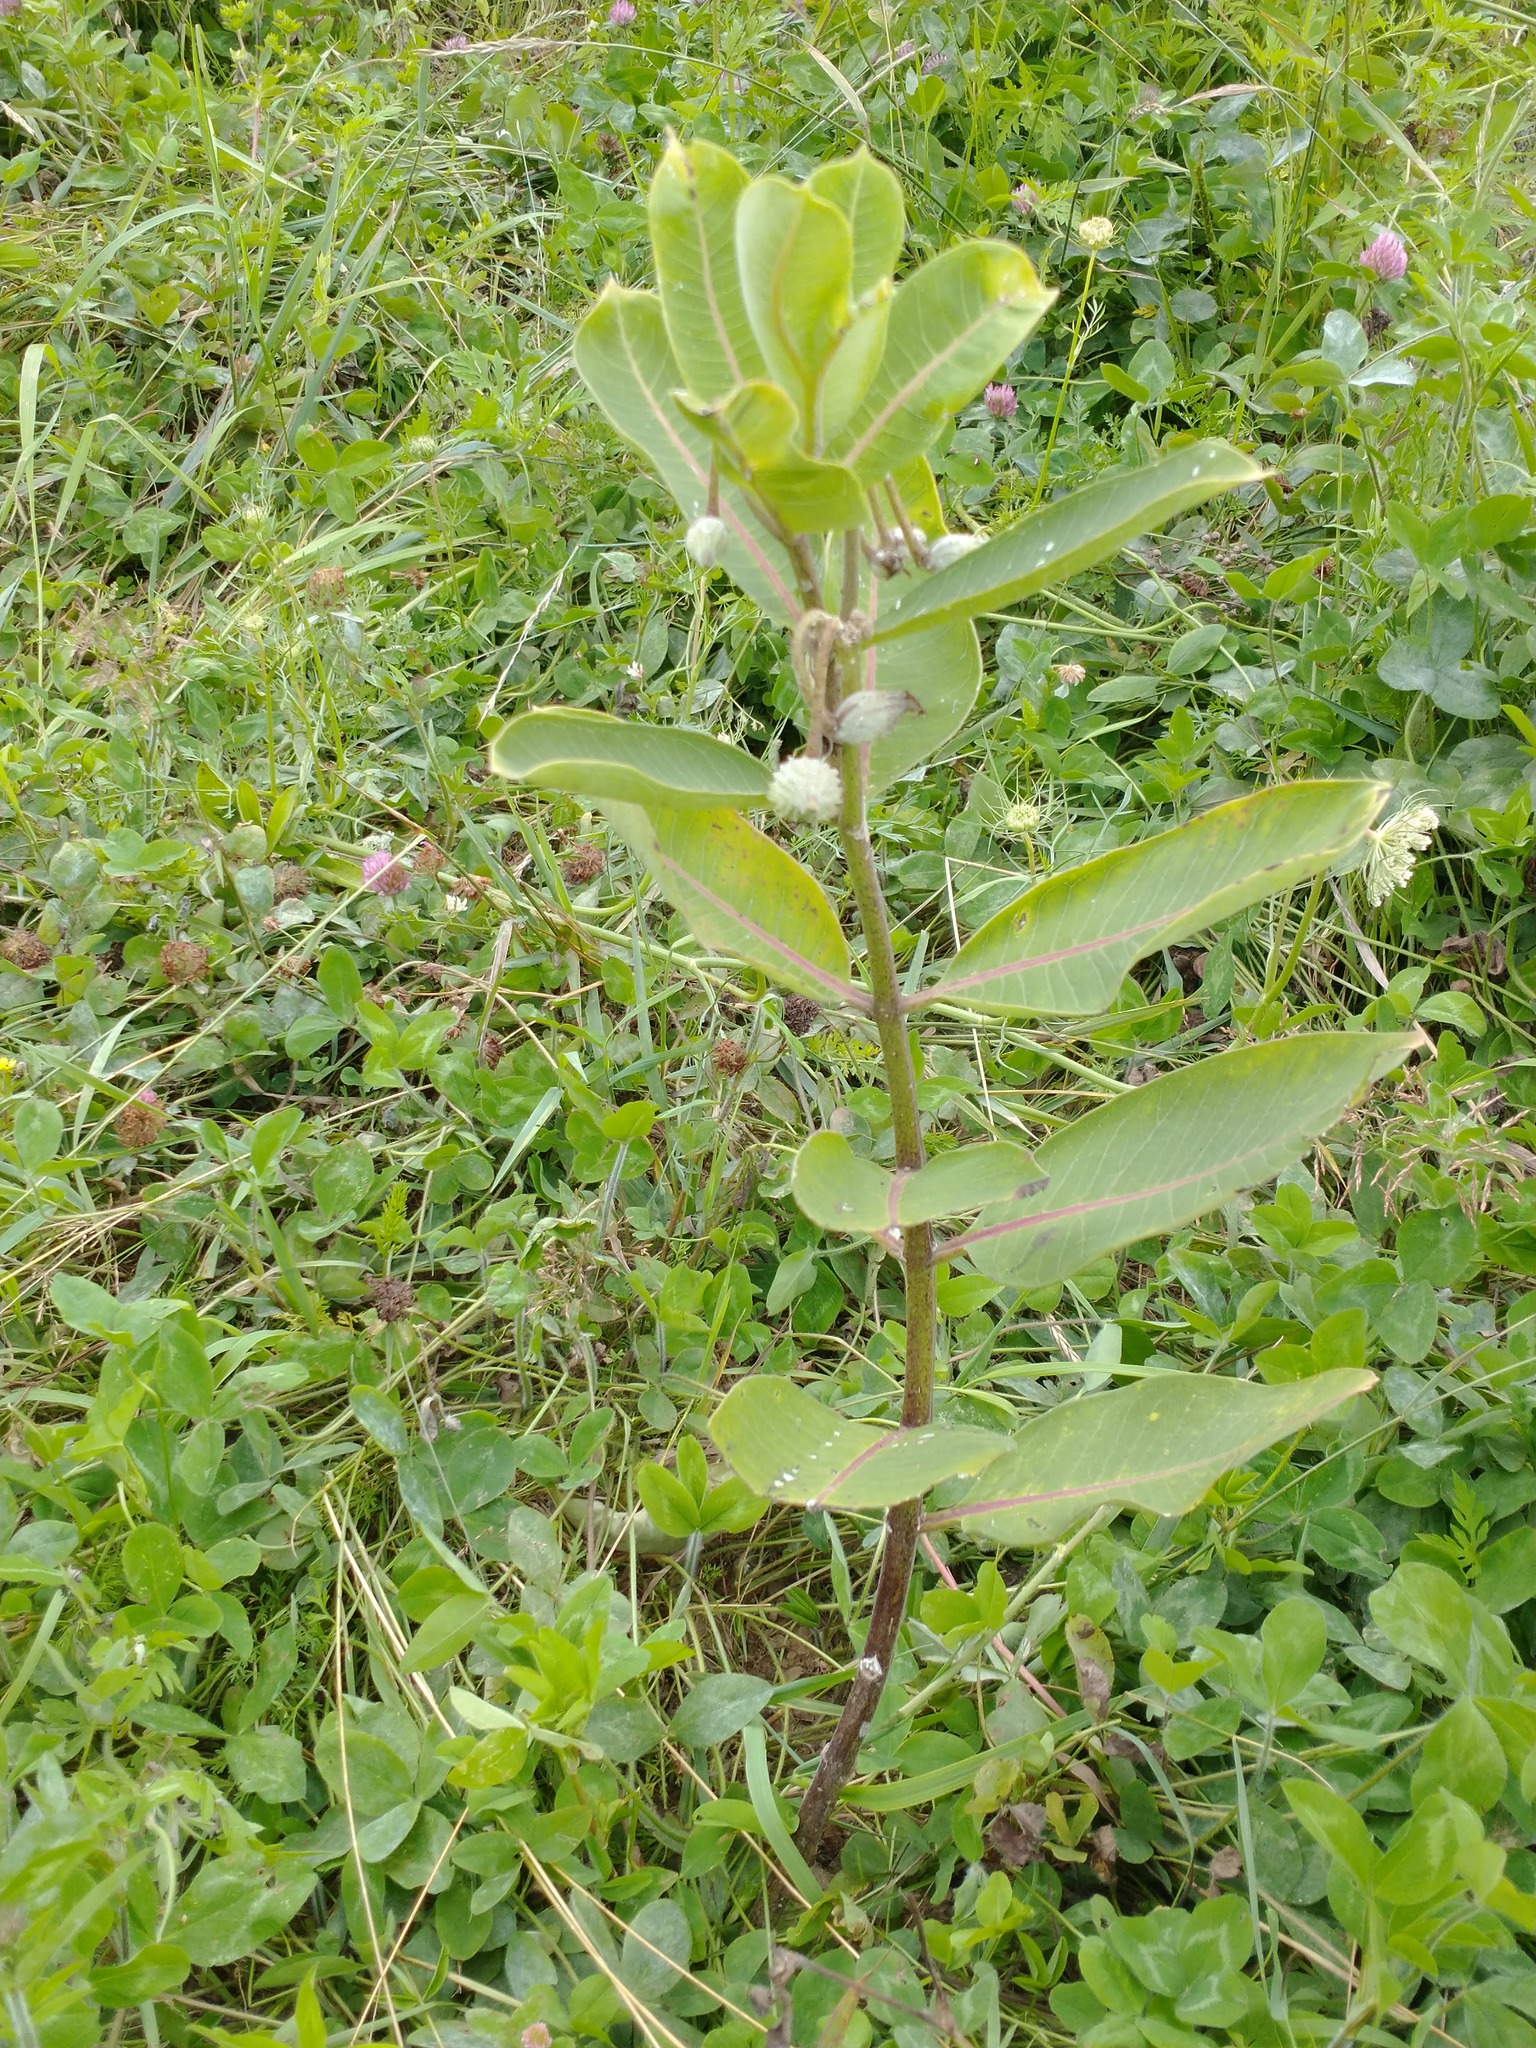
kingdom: Plantae
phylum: Tracheophyta
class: Magnoliopsida
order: Gentianales
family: Apocynaceae
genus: Asclepias
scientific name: Asclepias syriaca
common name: Common milkweed
